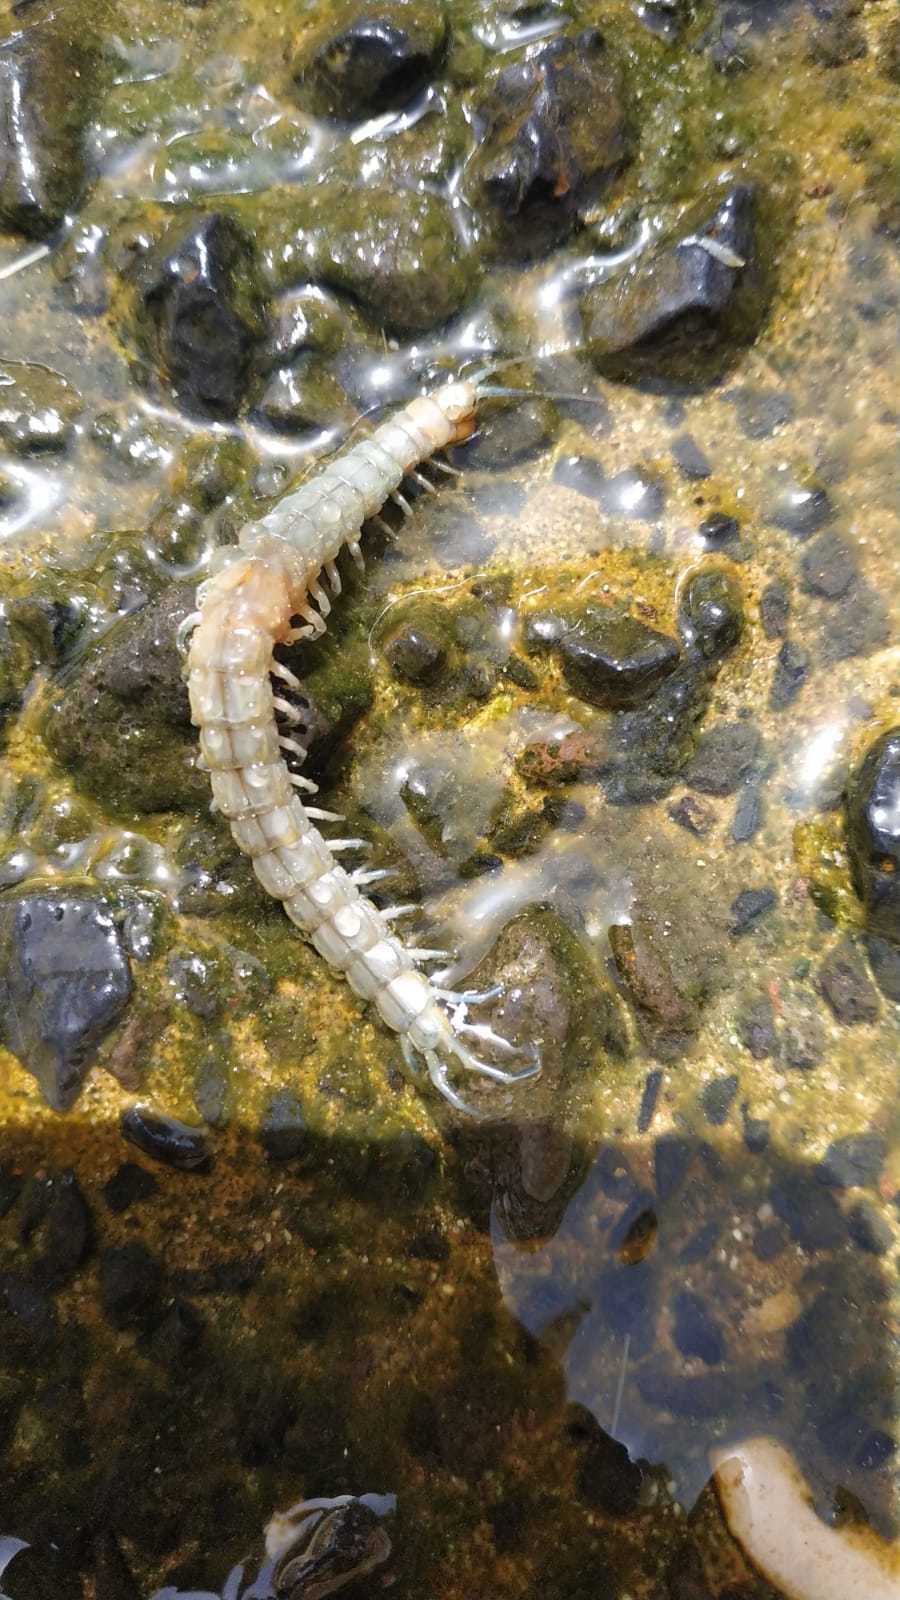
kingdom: Animalia
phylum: Arthropoda
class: Chilopoda
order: Scolopendromorpha
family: Scolopendridae
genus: Otostigmus
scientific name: Otostigmus spinicaudus
